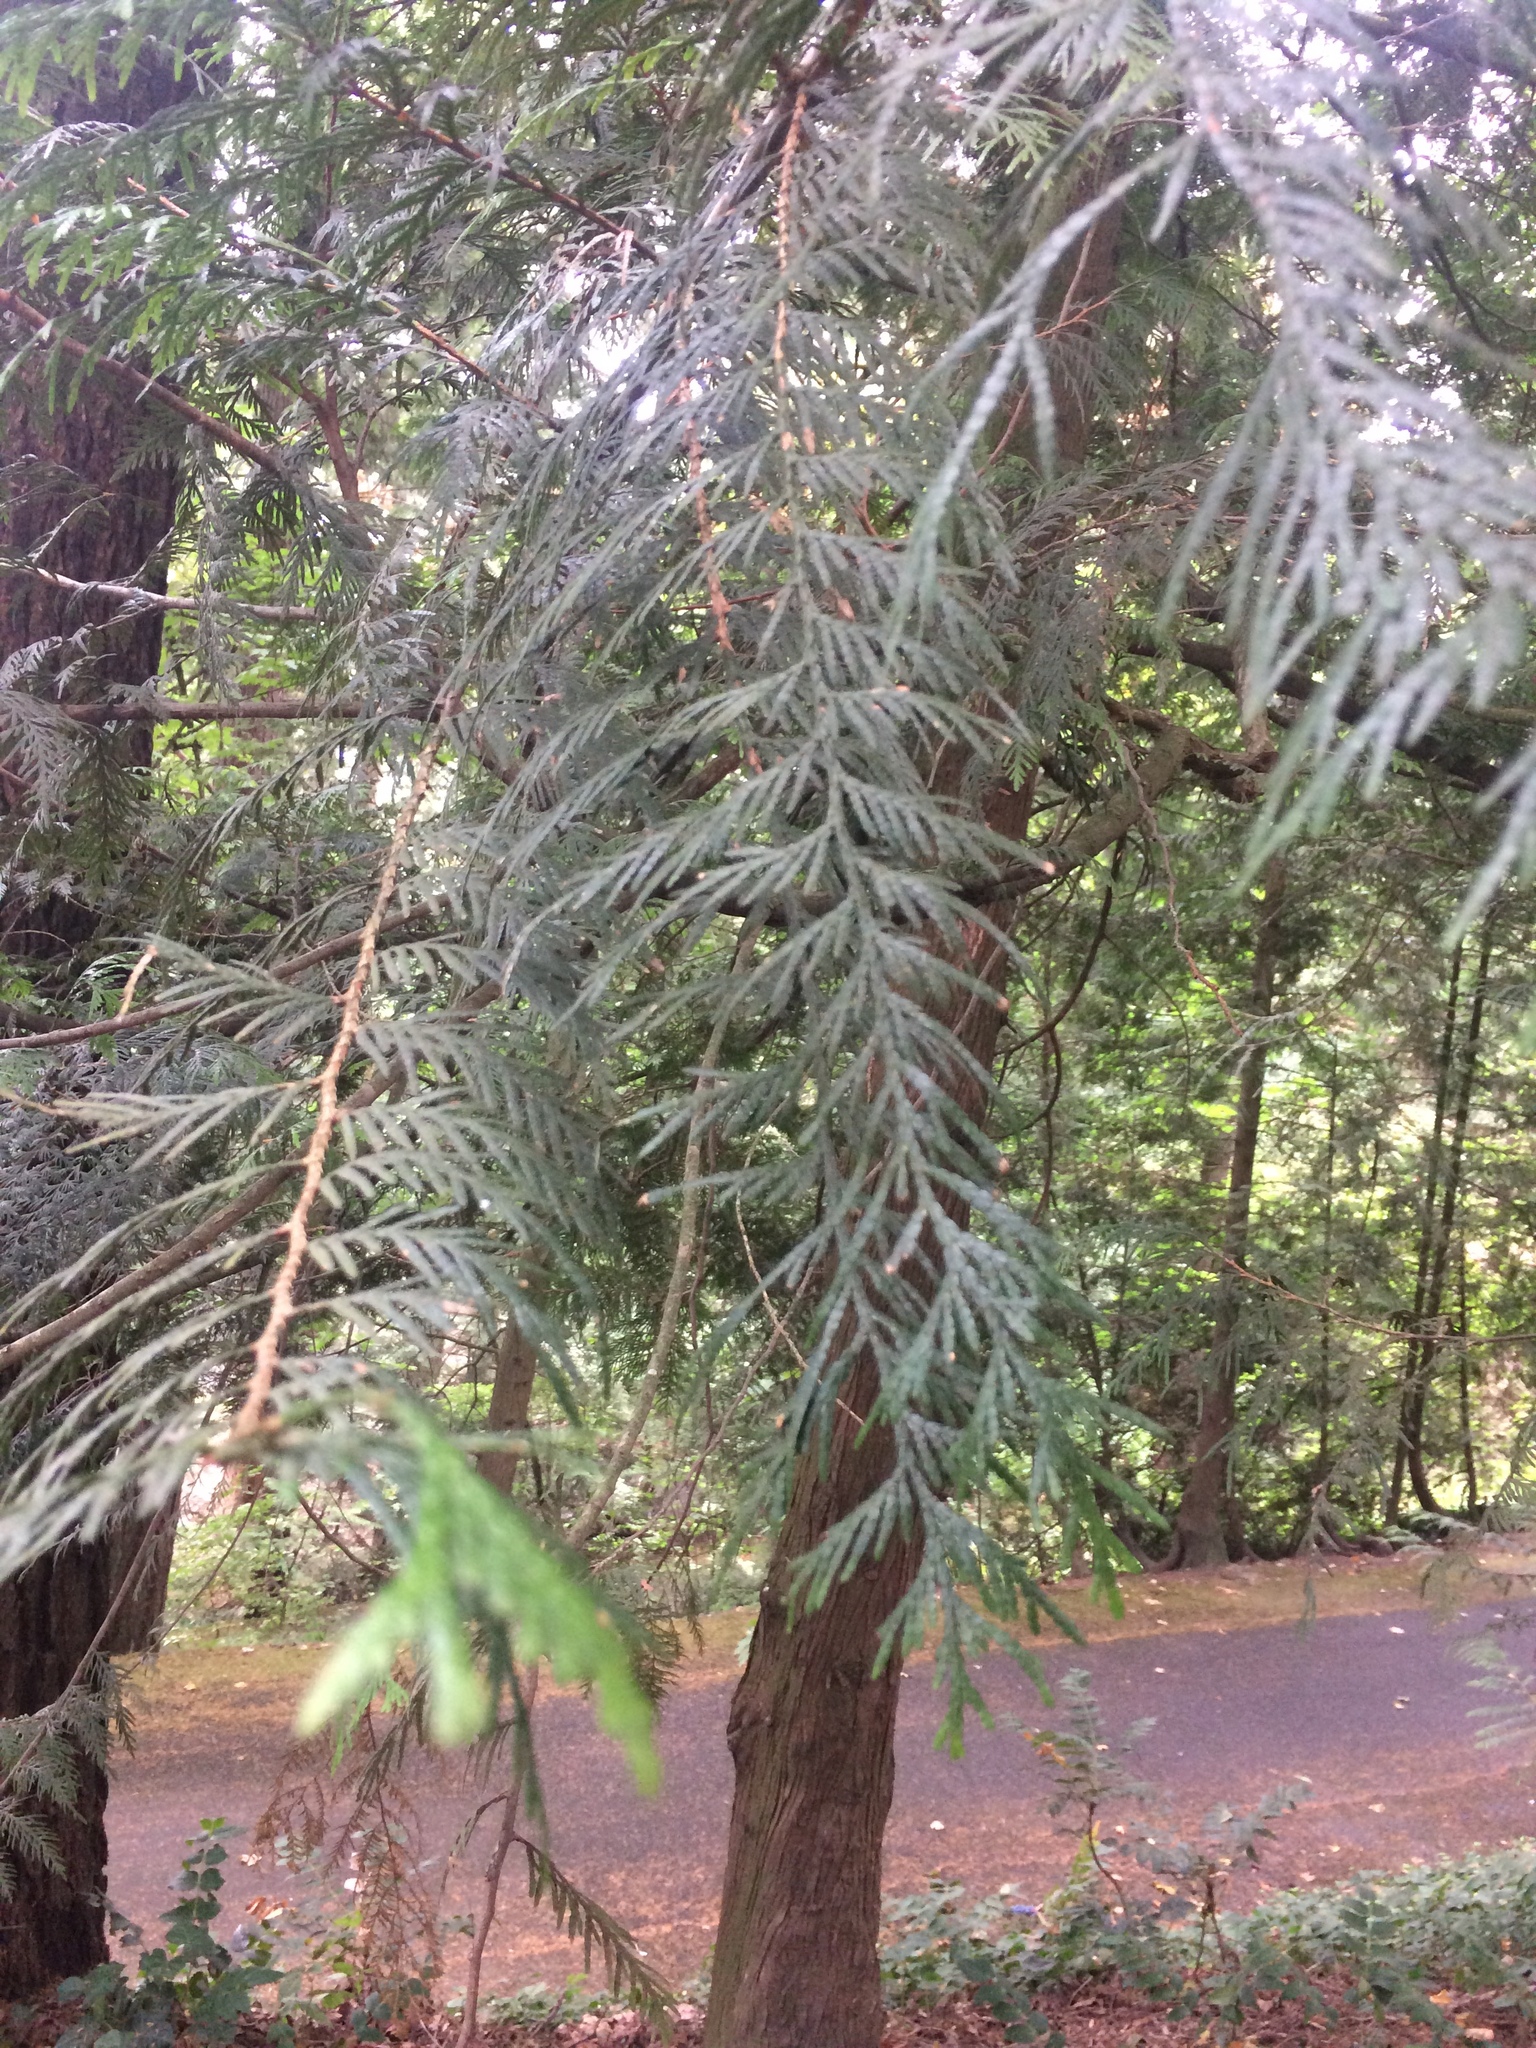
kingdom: Plantae
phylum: Tracheophyta
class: Pinopsida
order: Pinales
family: Cupressaceae
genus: Thuja
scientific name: Thuja plicata
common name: Western red-cedar
